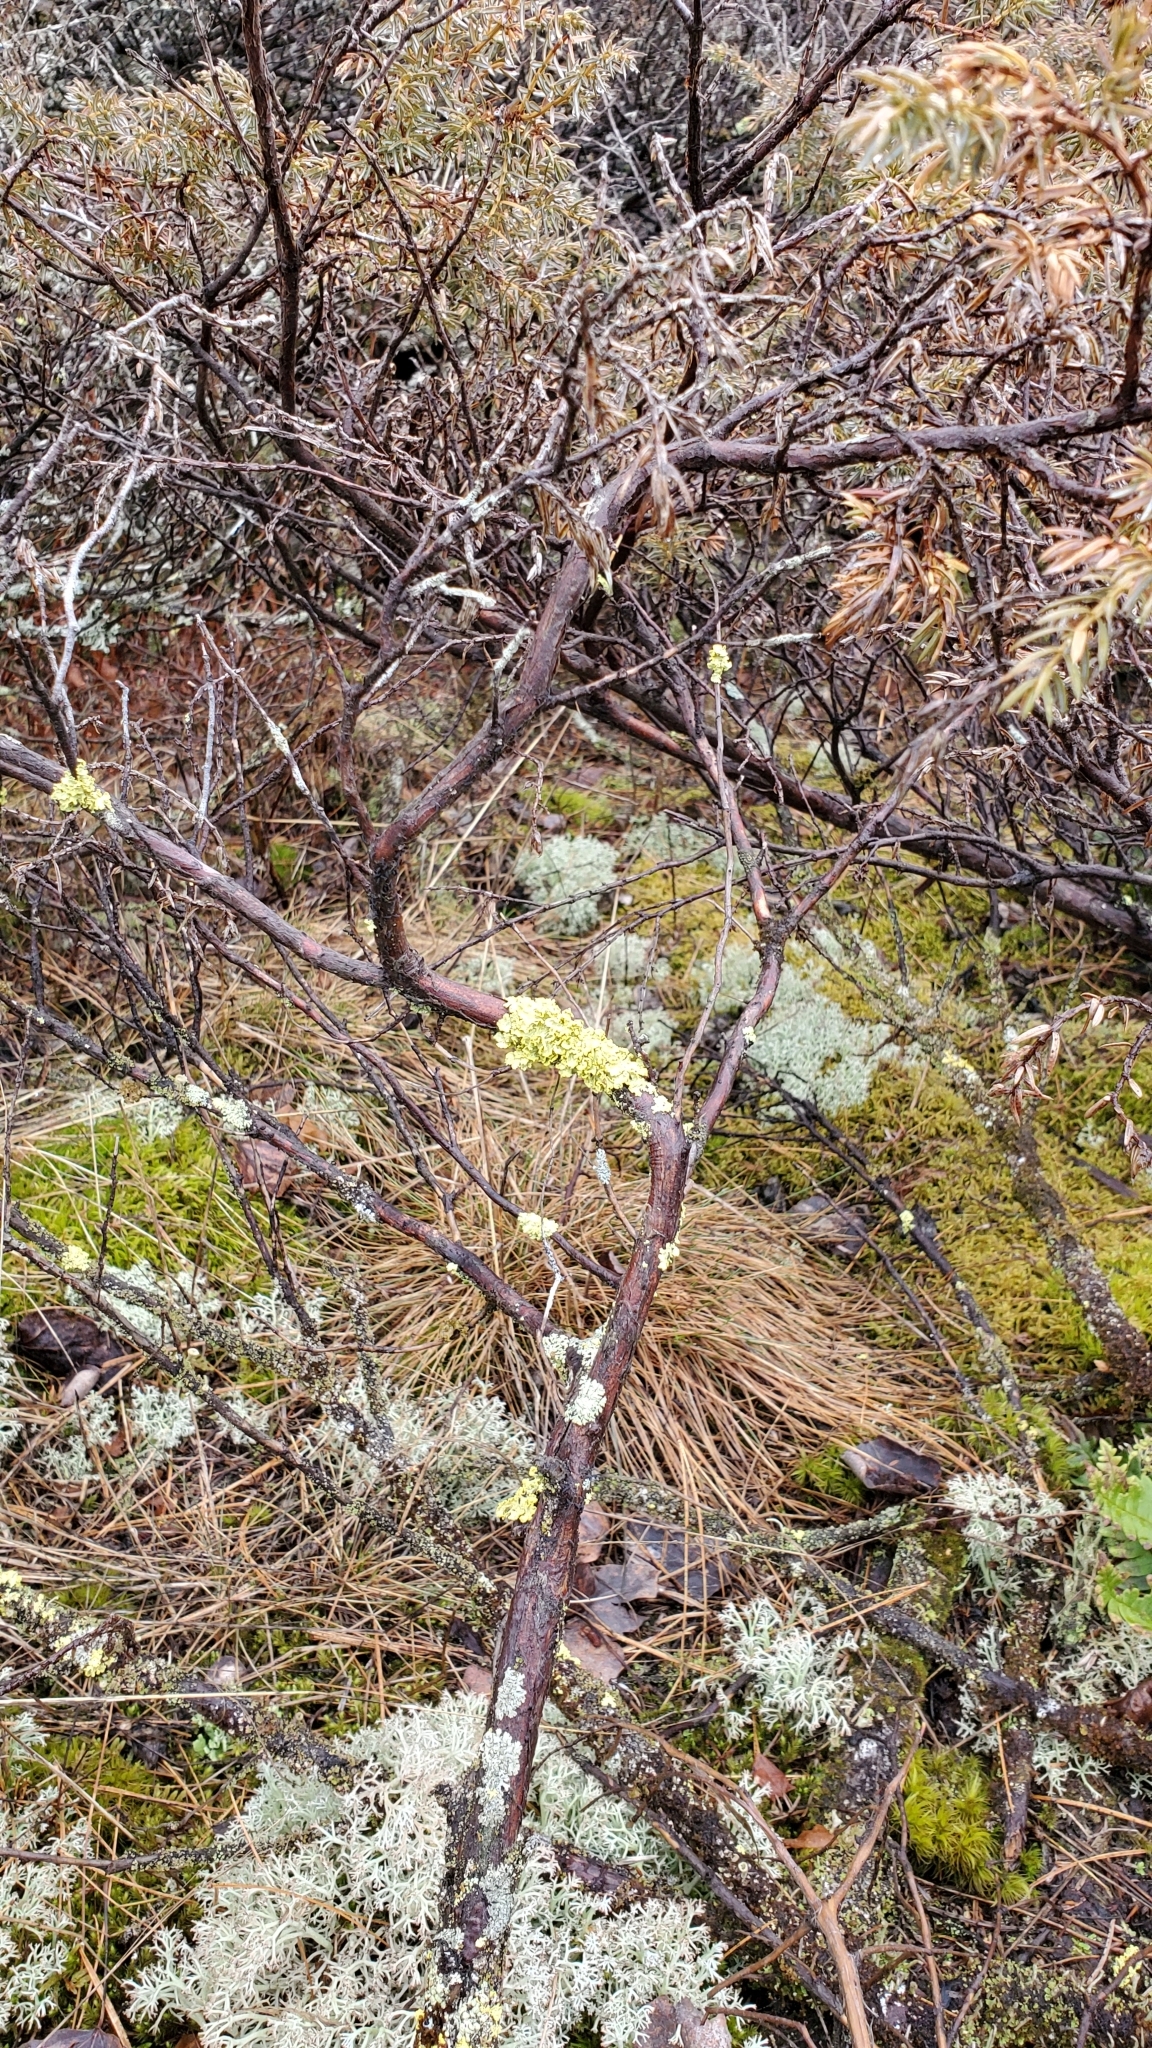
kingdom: Fungi
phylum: Ascomycota
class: Lecanoromycetes
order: Lecanorales
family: Parmeliaceae
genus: Vulpicida
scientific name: Vulpicida pinastri
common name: Powdered sunshine lichen
